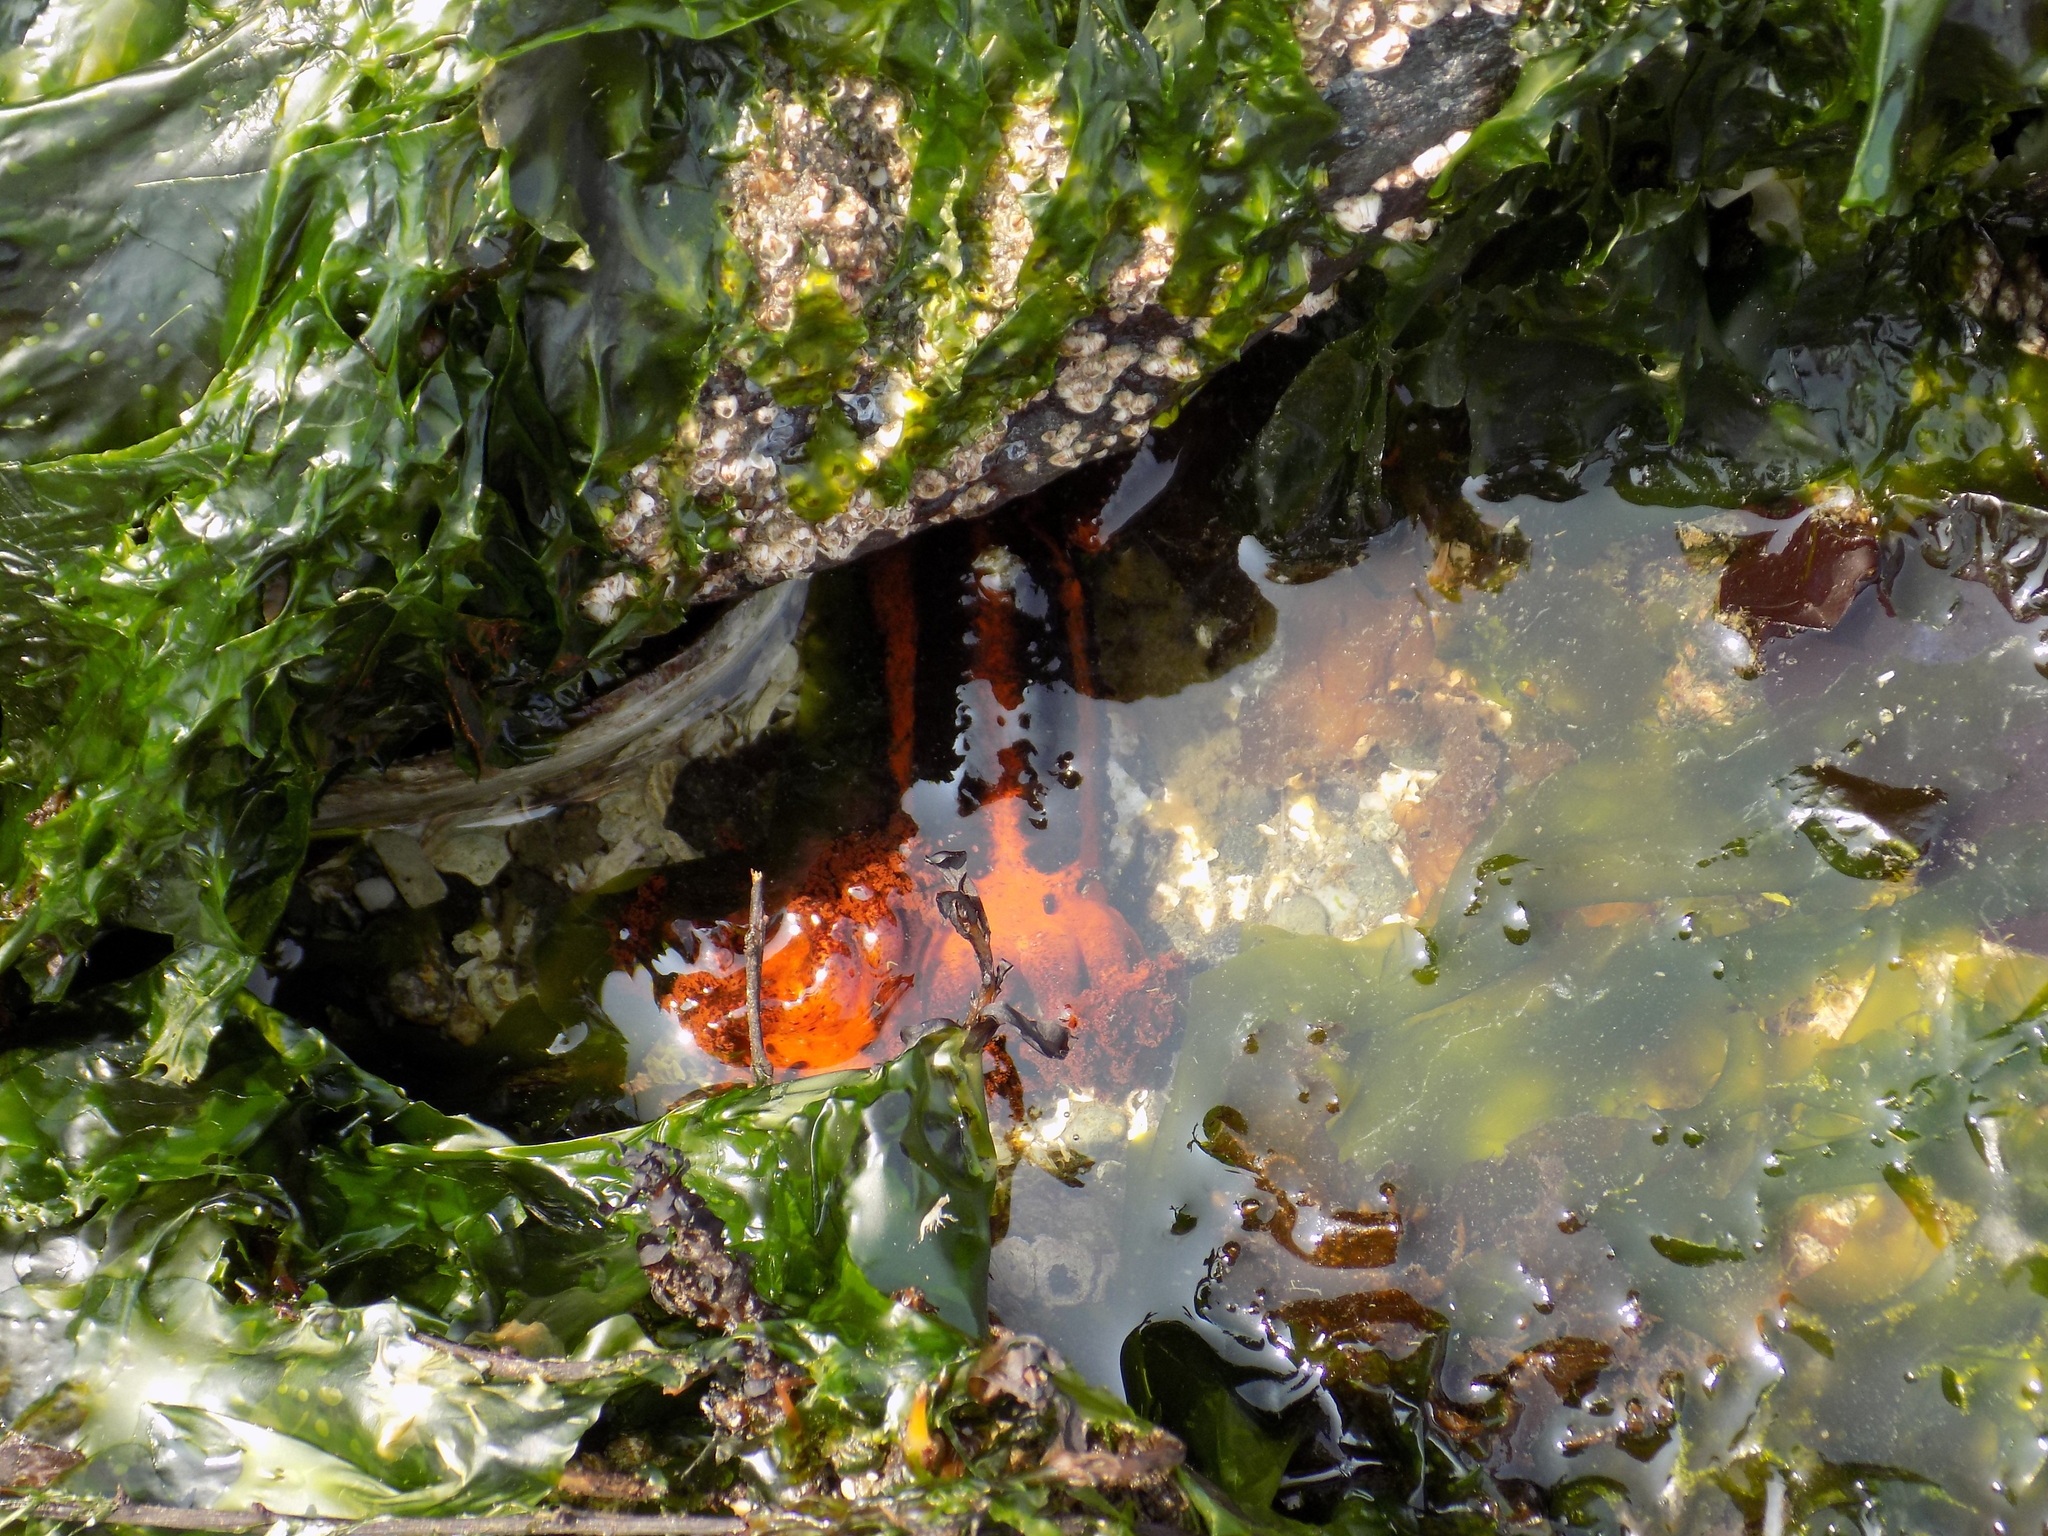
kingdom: Animalia
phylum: Echinodermata
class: Holothuroidea
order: Dendrochirotida
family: Cucumariidae
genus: Cucumaria
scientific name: Cucumaria miniata
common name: Orange sea cucumber
